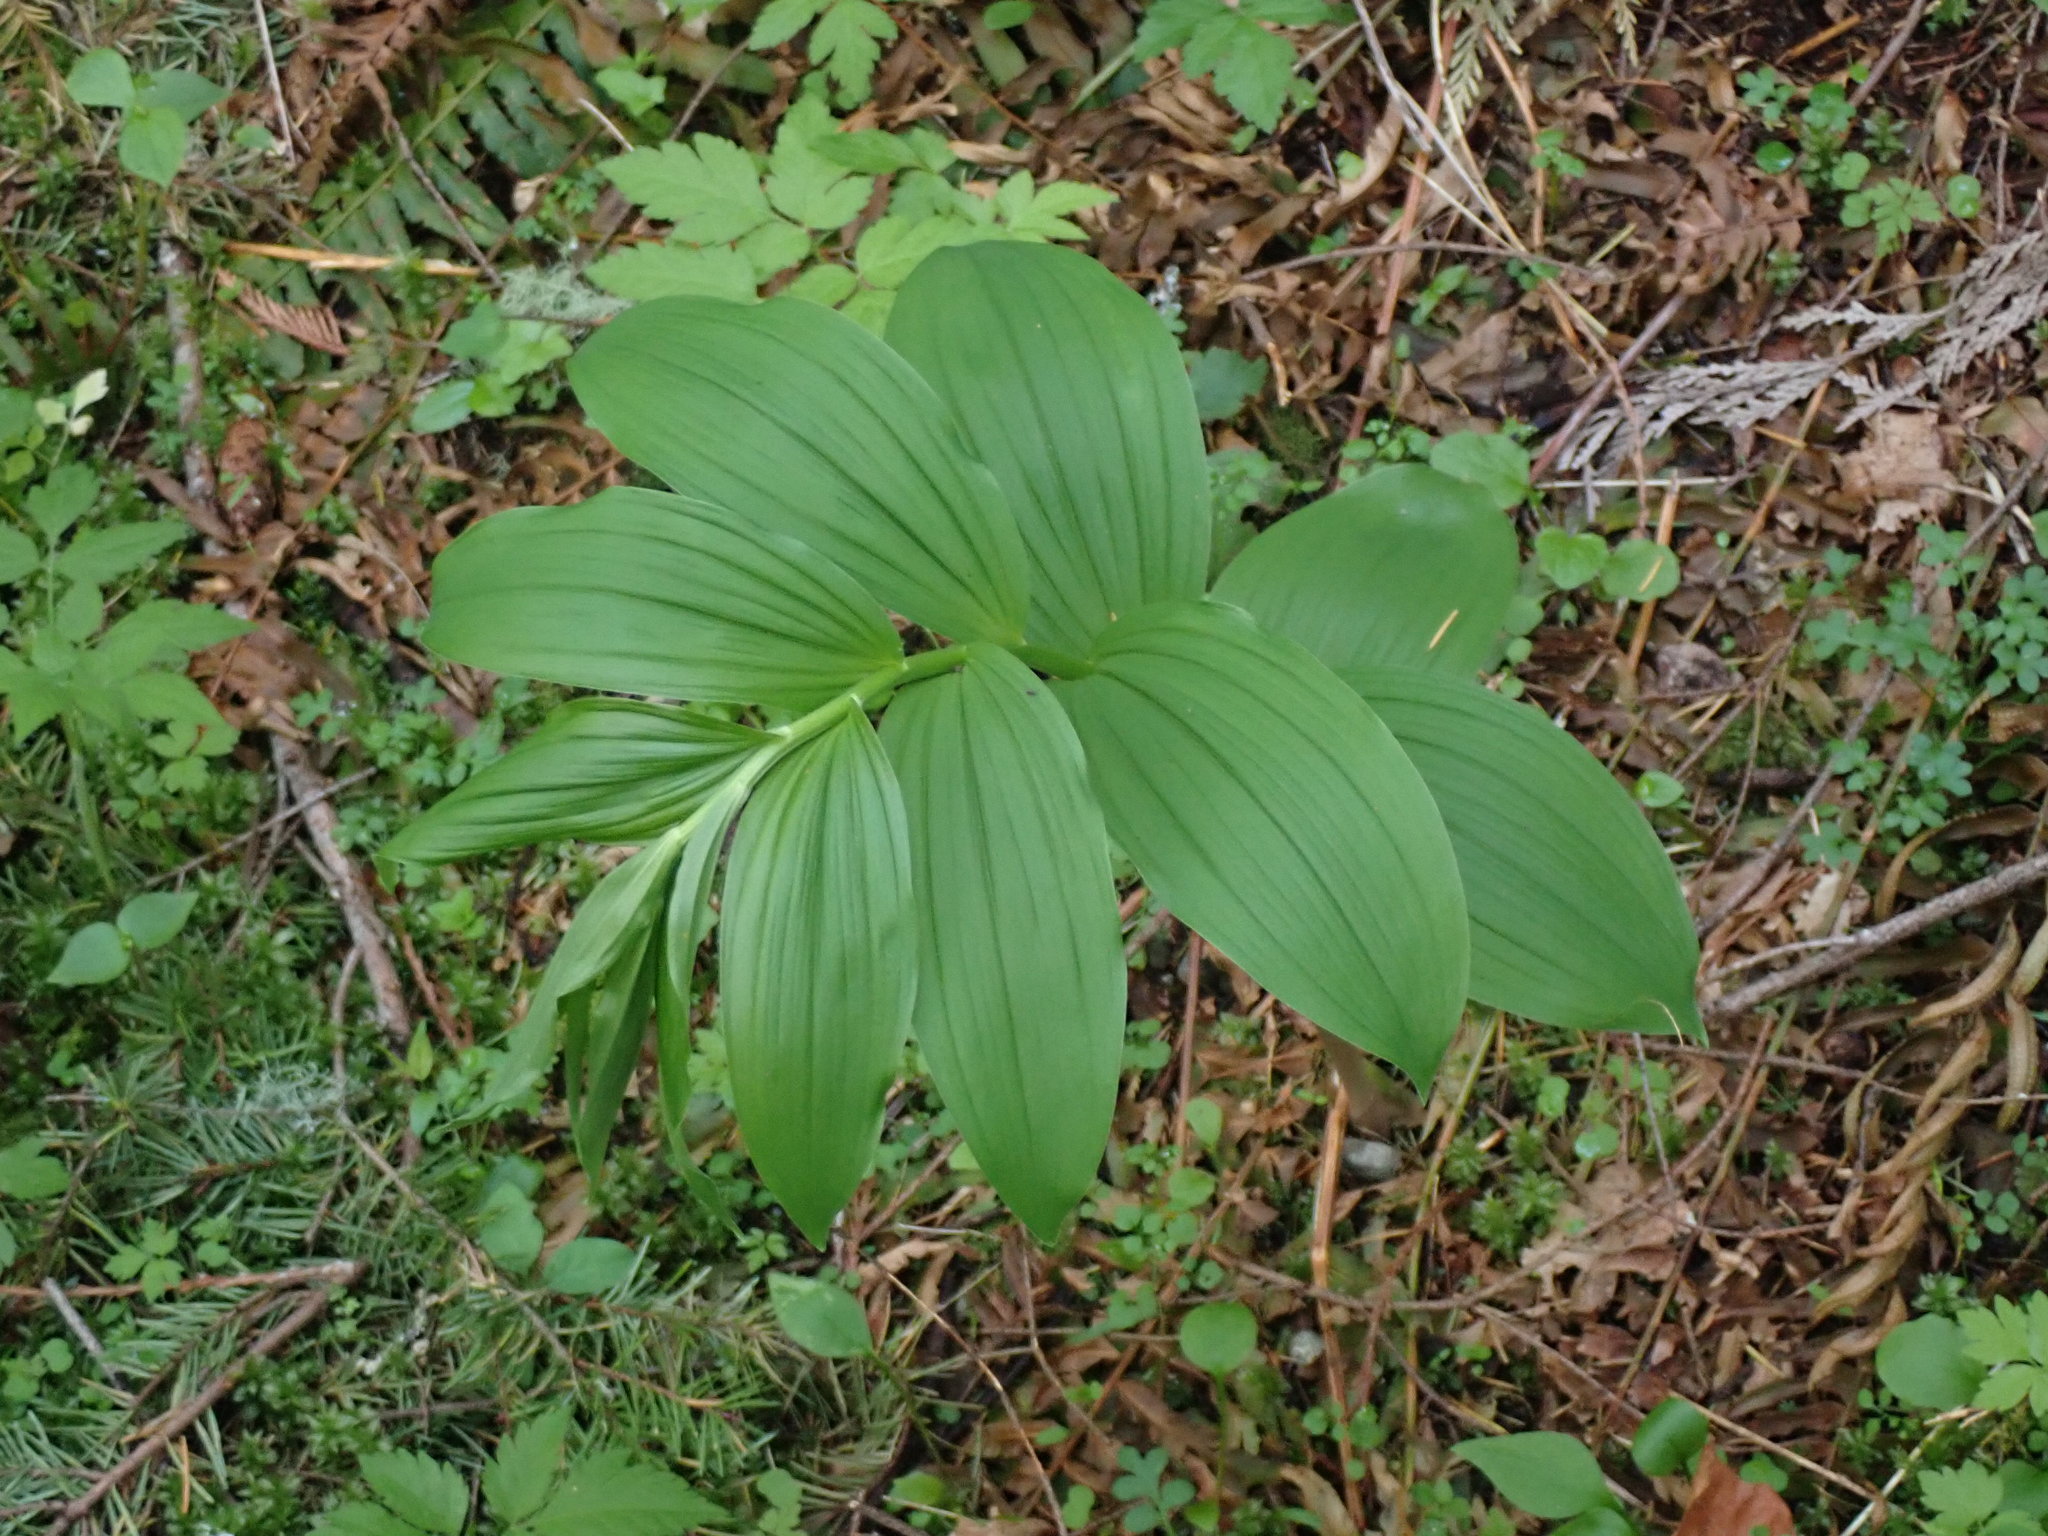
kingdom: Plantae
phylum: Tracheophyta
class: Liliopsida
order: Asparagales
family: Asparagaceae
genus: Maianthemum
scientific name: Maianthemum racemosum
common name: False spikenard
